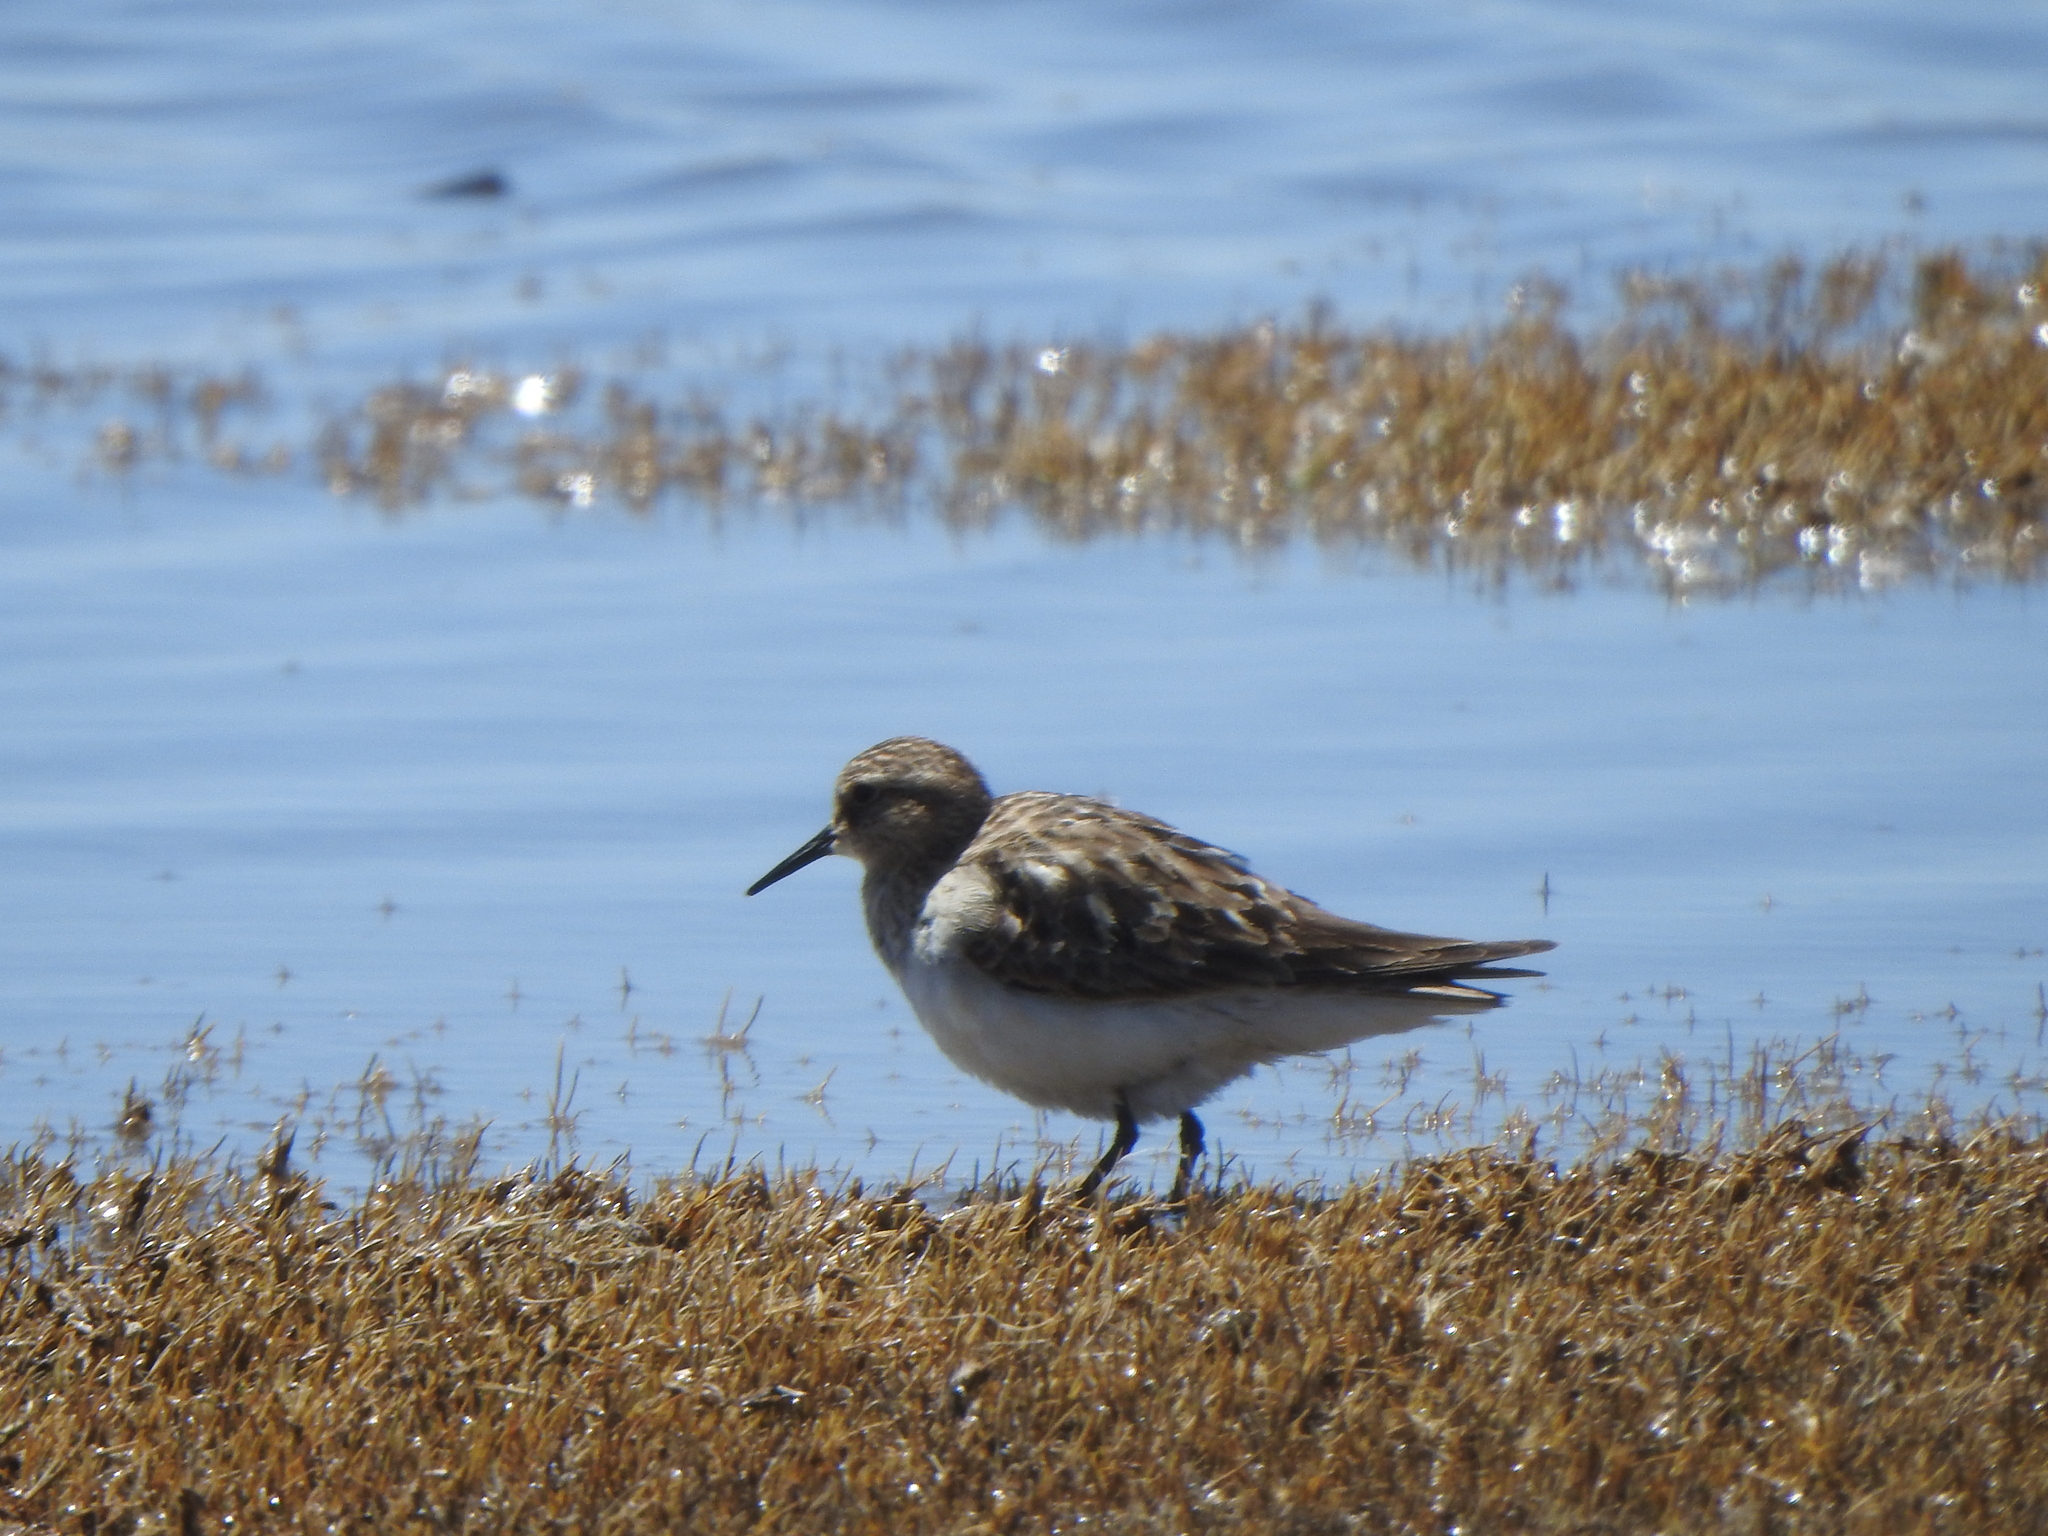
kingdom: Animalia
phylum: Chordata
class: Aves
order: Charadriiformes
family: Scolopacidae
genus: Calidris
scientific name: Calidris bairdii
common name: Baird's sandpiper
